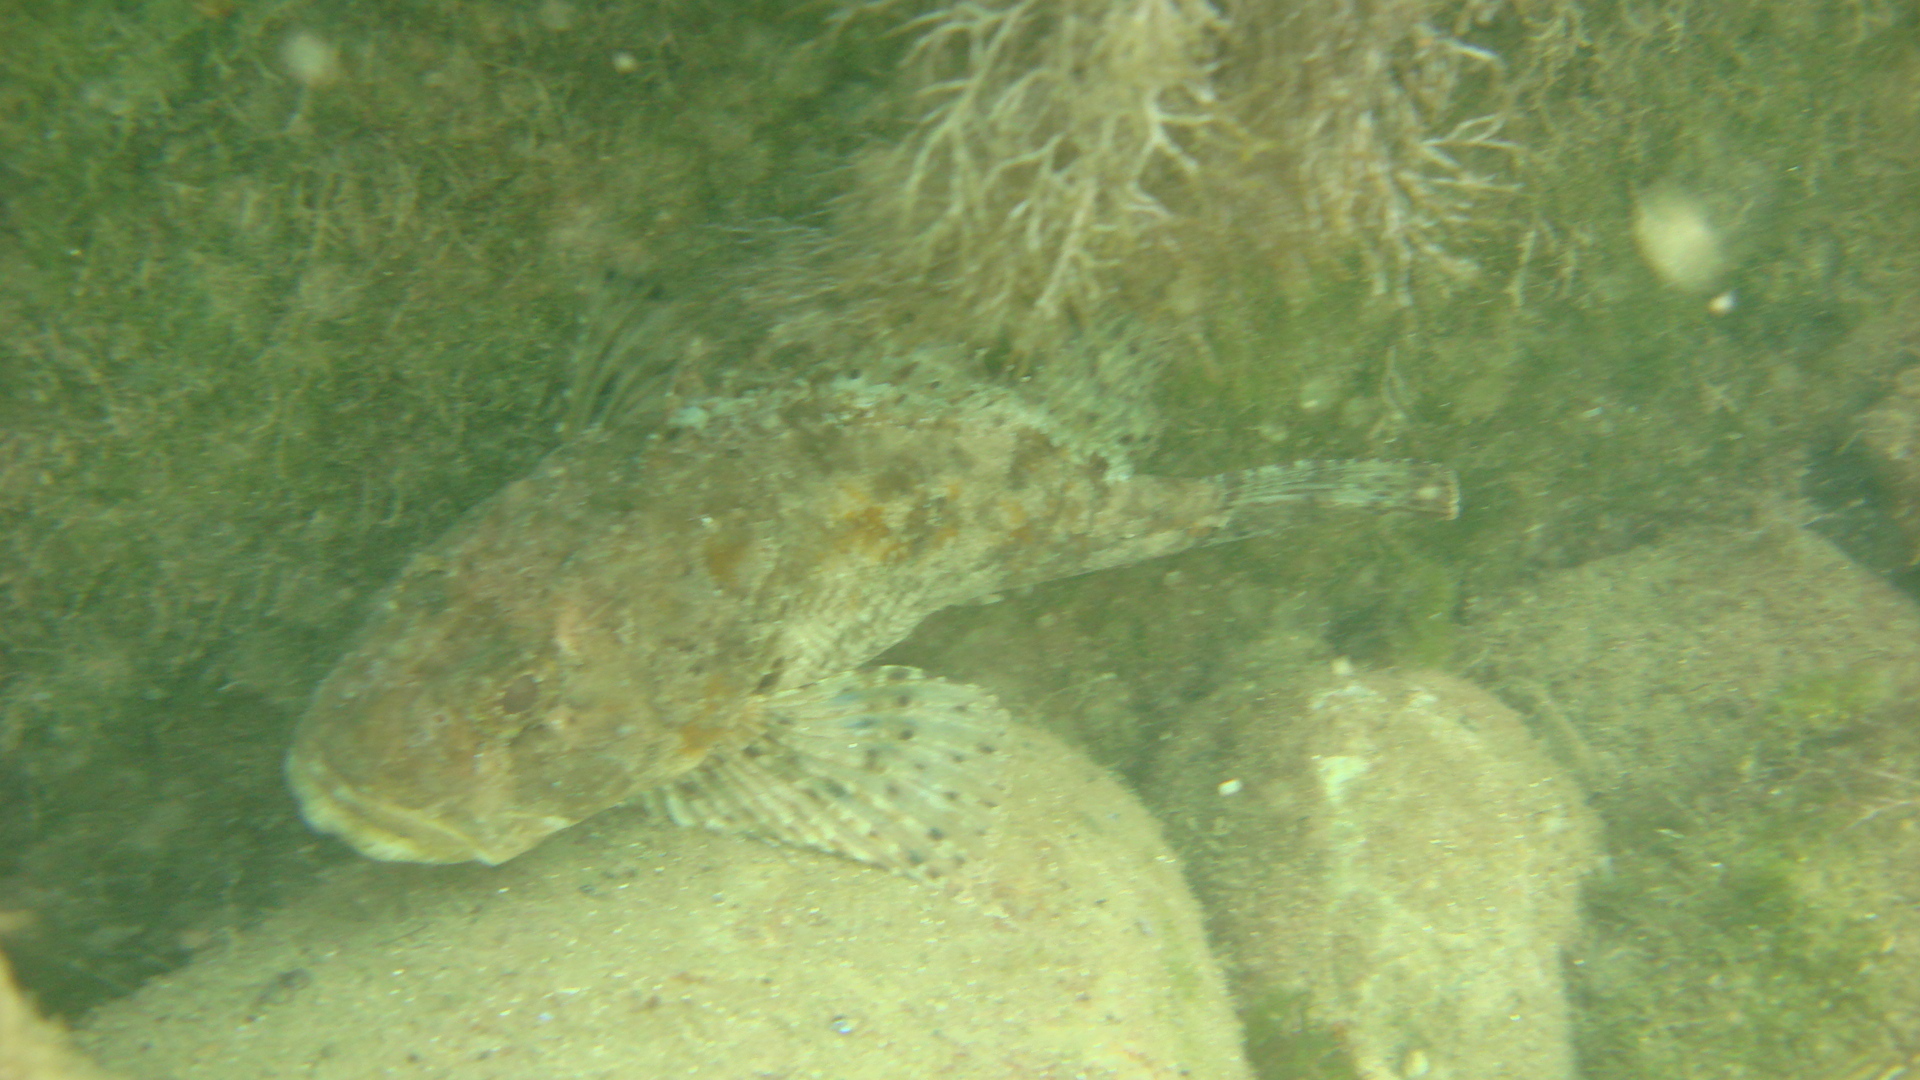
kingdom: Animalia
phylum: Chordata
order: Scorpaeniformes
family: Scorpaenidae
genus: Scorpaena
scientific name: Scorpaena porcus
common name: Black scorpionfish
